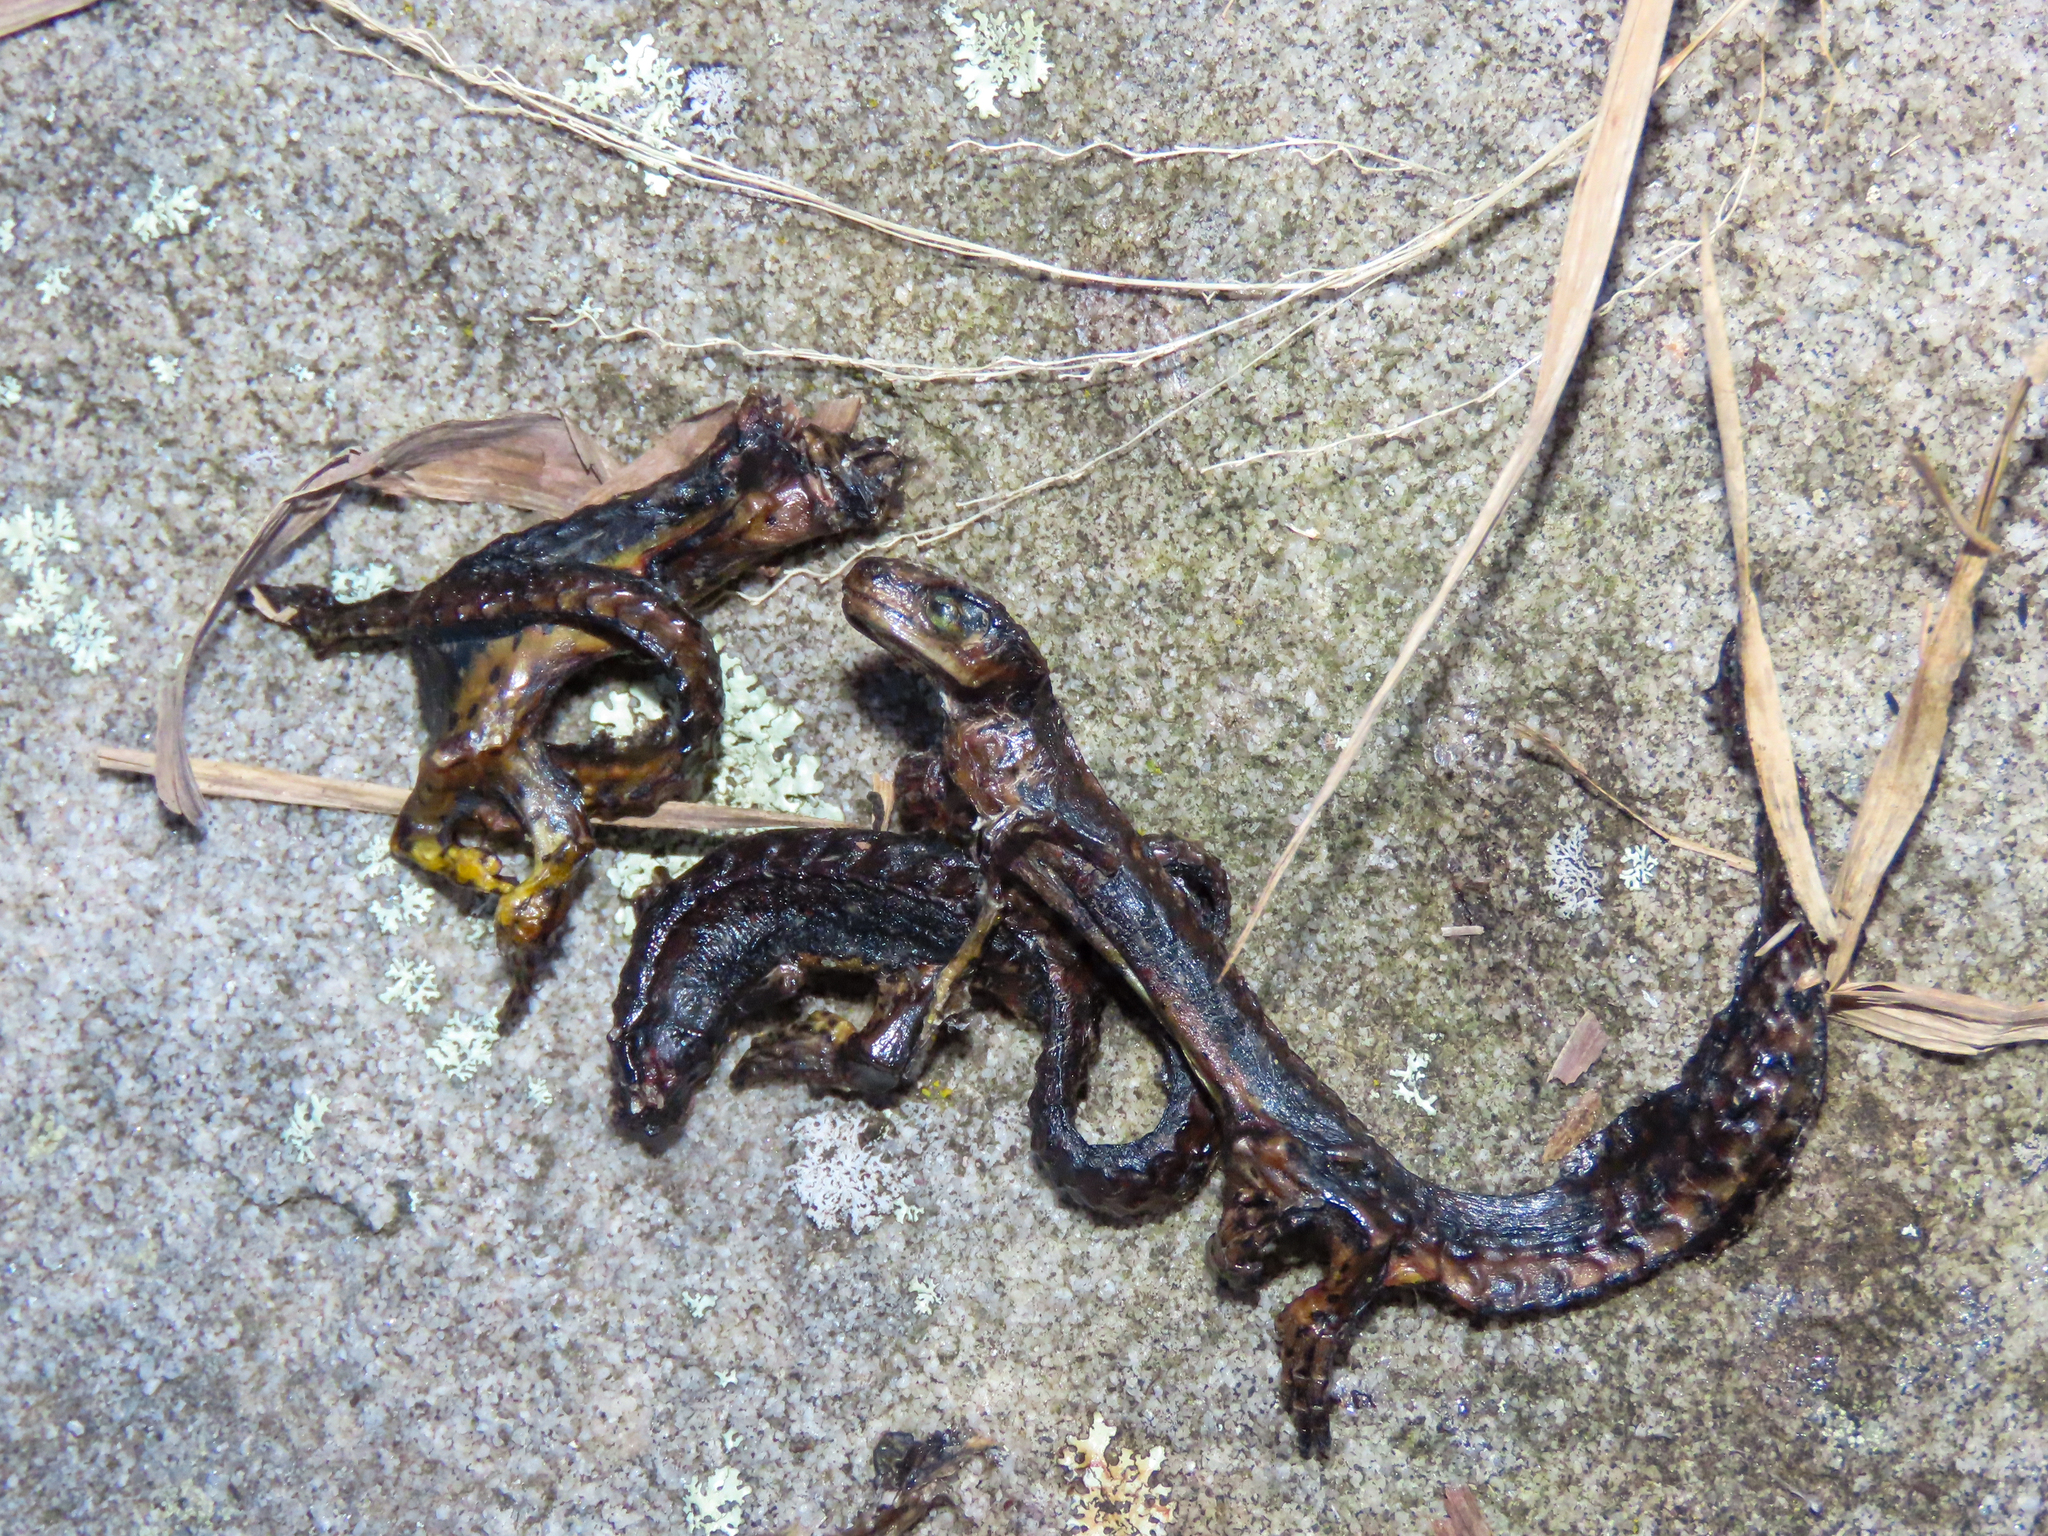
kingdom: Animalia
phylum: Chordata
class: Amphibia
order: Caudata
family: Salamandridae
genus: Notophthalmus
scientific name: Notophthalmus viridescens
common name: Eastern newt
